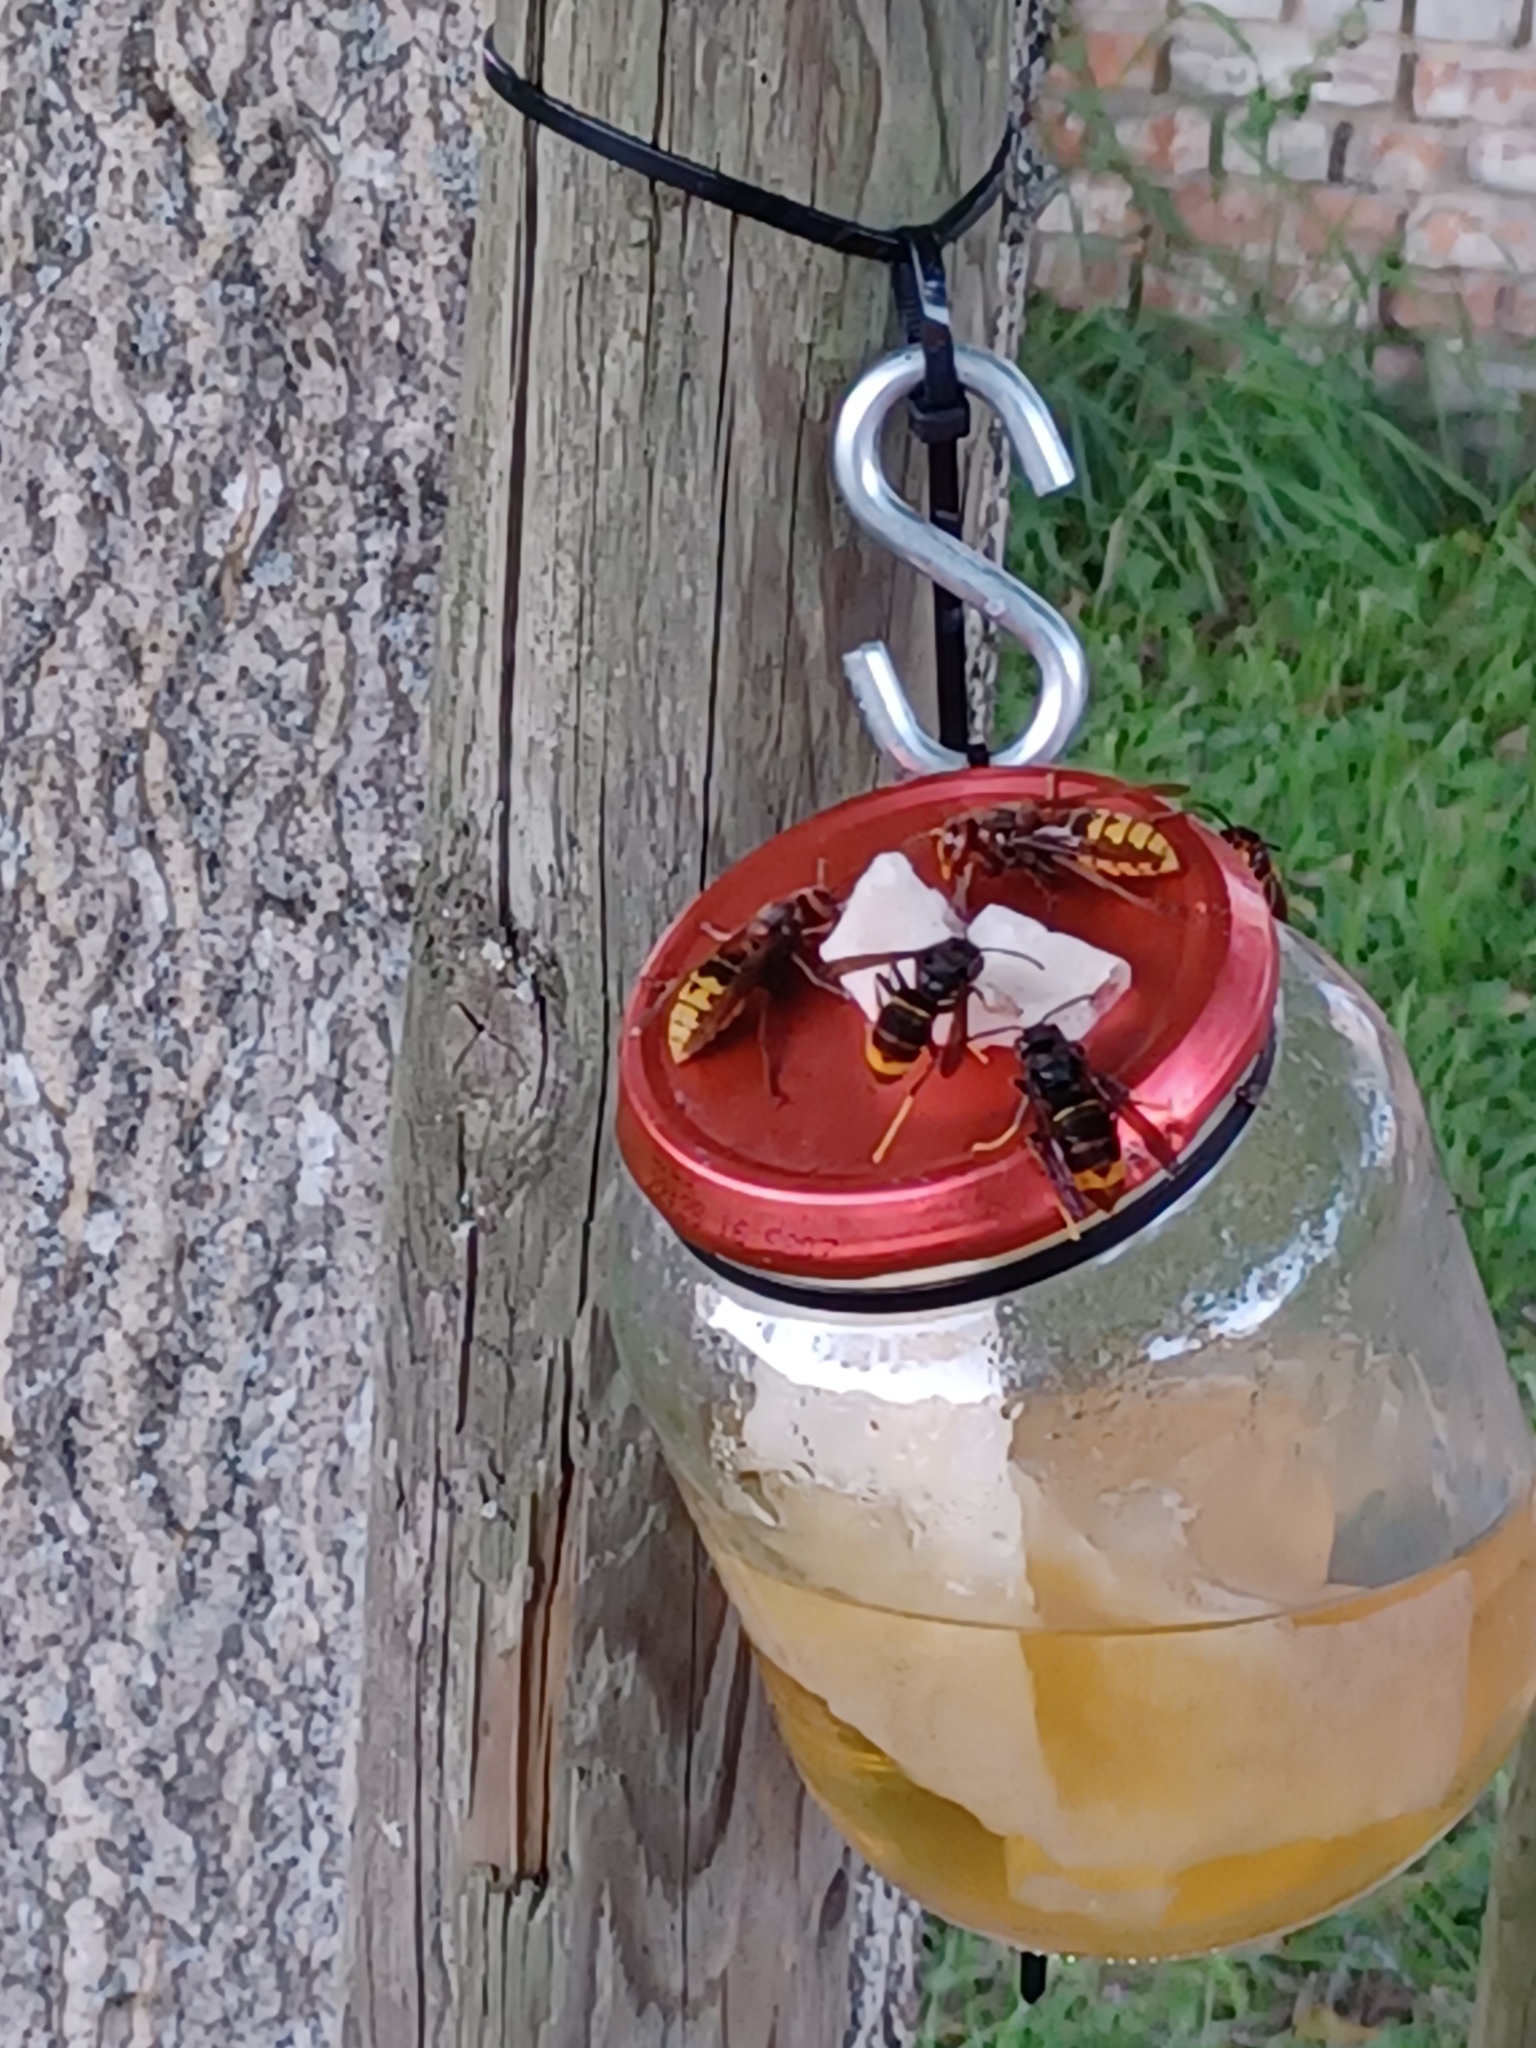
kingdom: Animalia
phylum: Arthropoda
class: Insecta
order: Hymenoptera
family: Vespidae
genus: Vespa
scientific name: Vespa velutina
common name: Asian hornet
